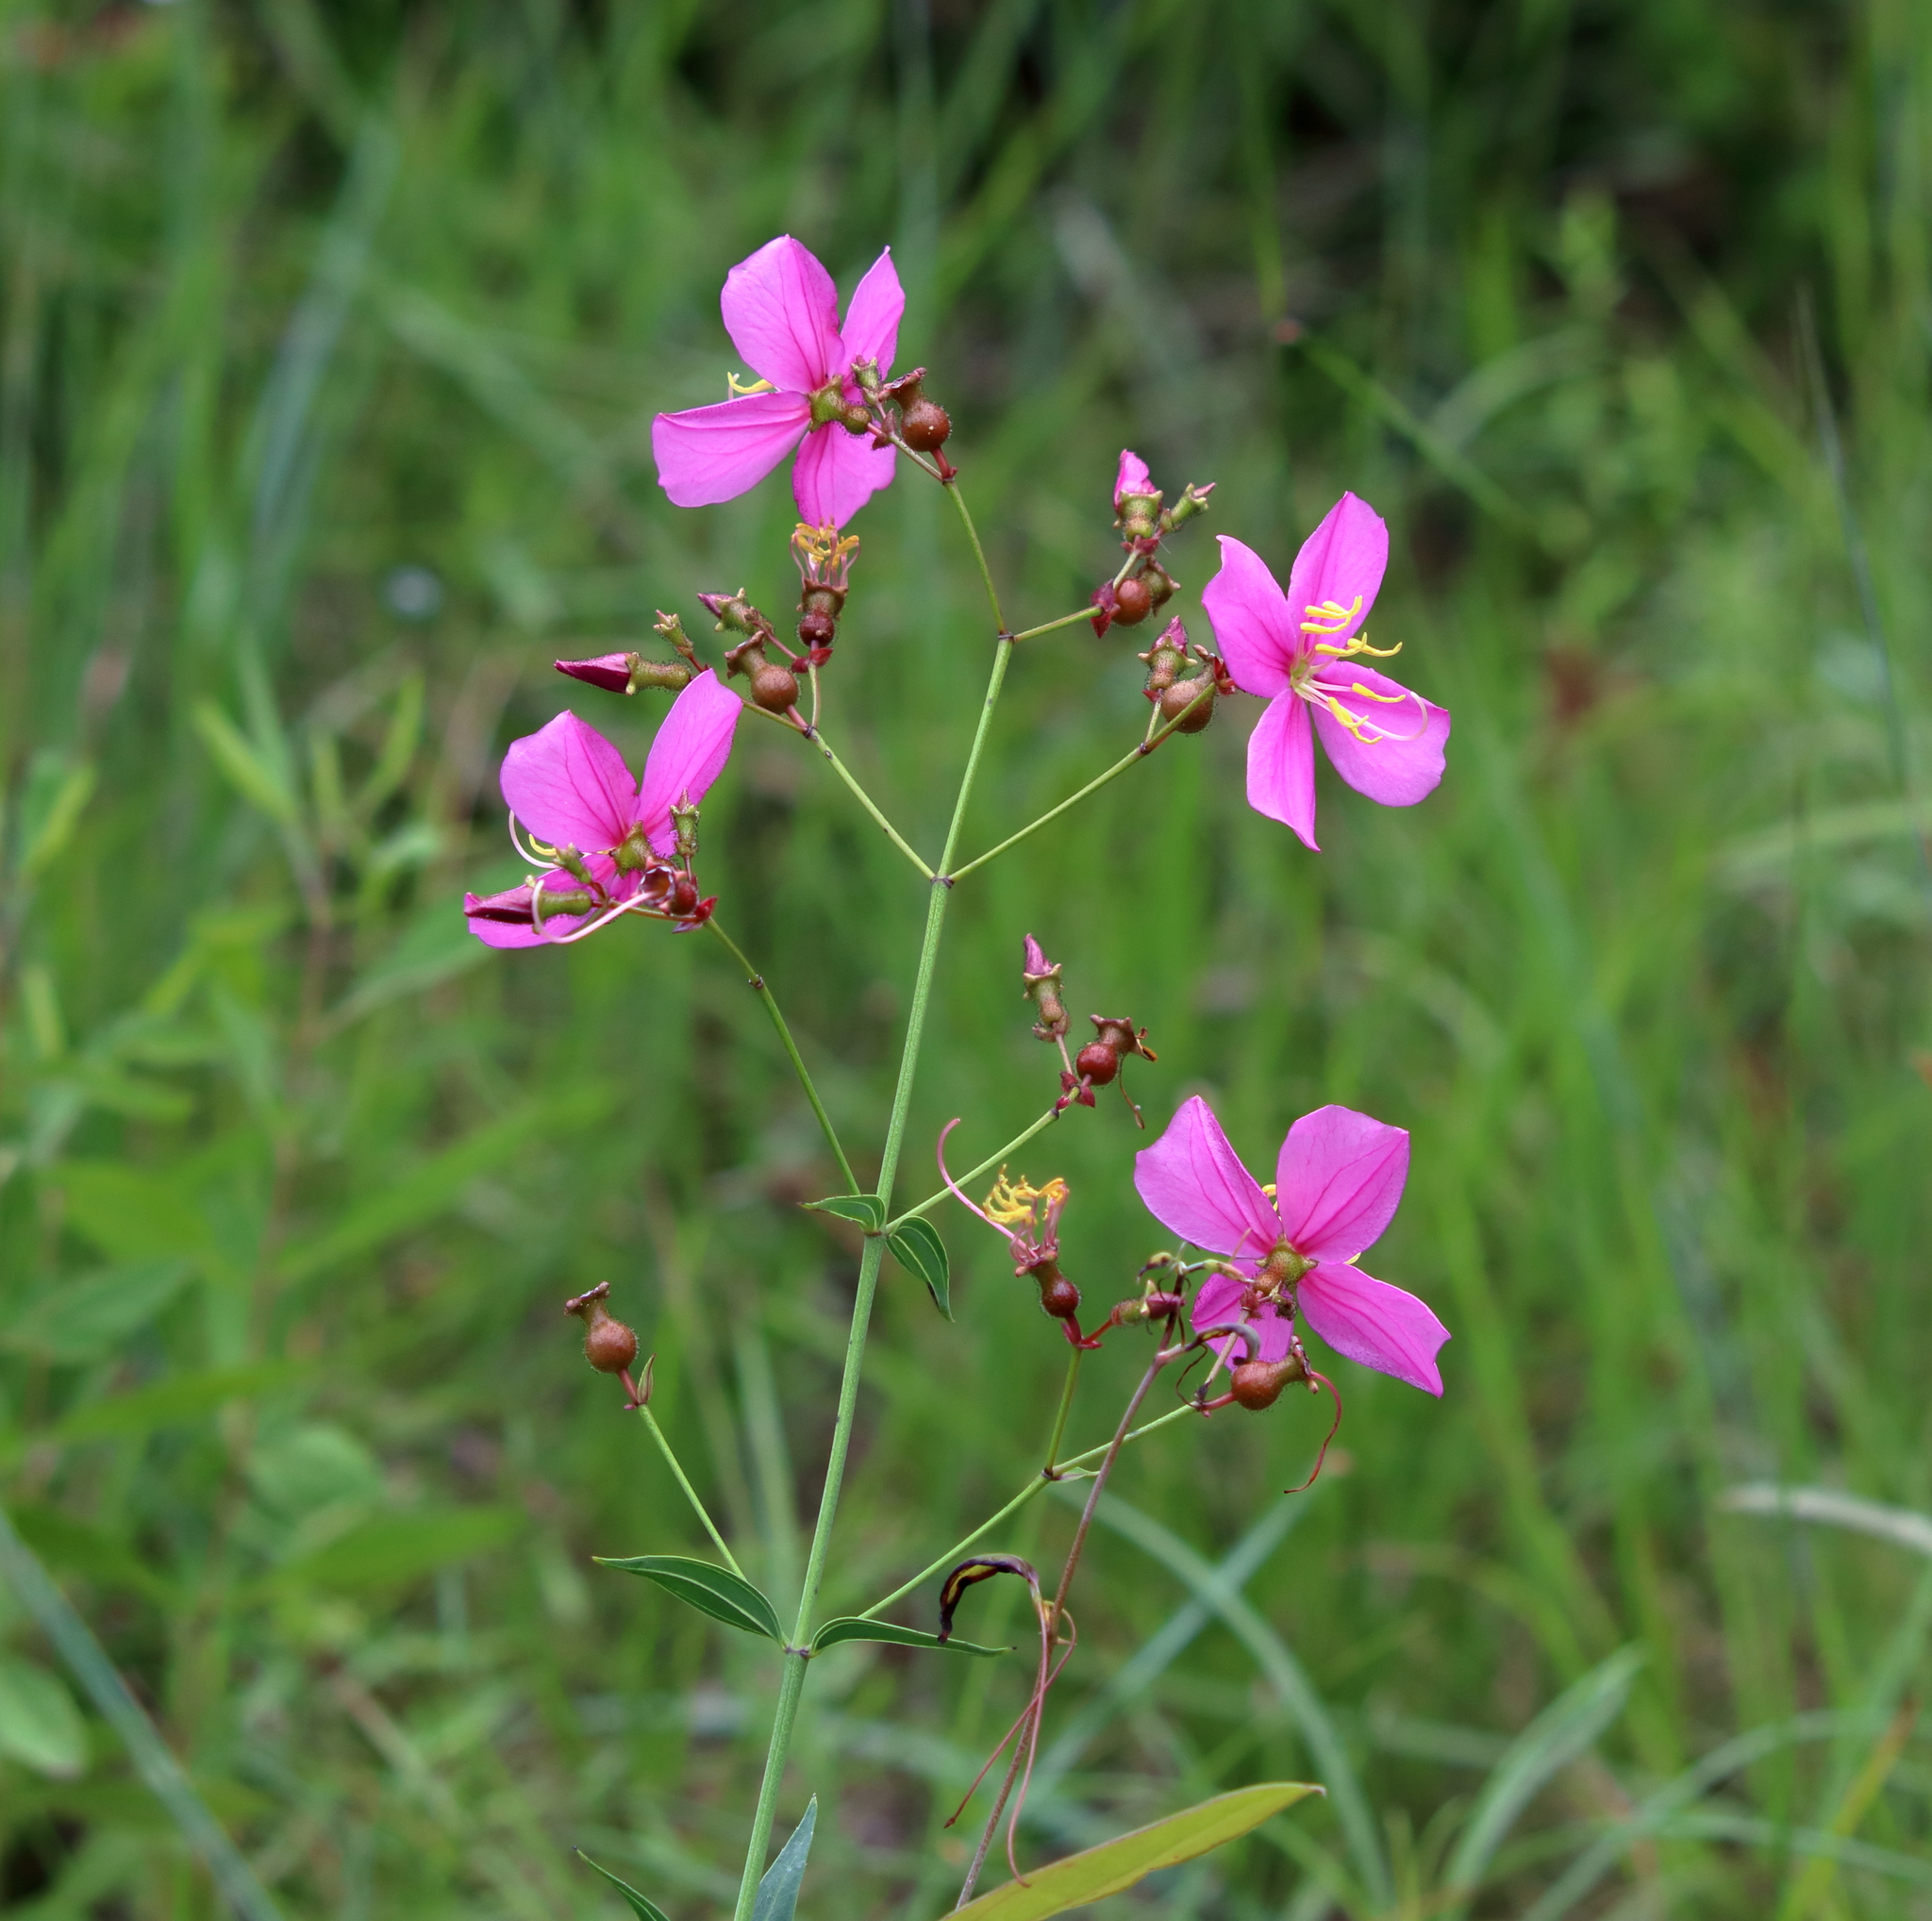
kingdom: Plantae
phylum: Tracheophyta
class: Magnoliopsida
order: Myrtales
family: Melastomataceae
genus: Rhexia
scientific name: Rhexia alifanus
